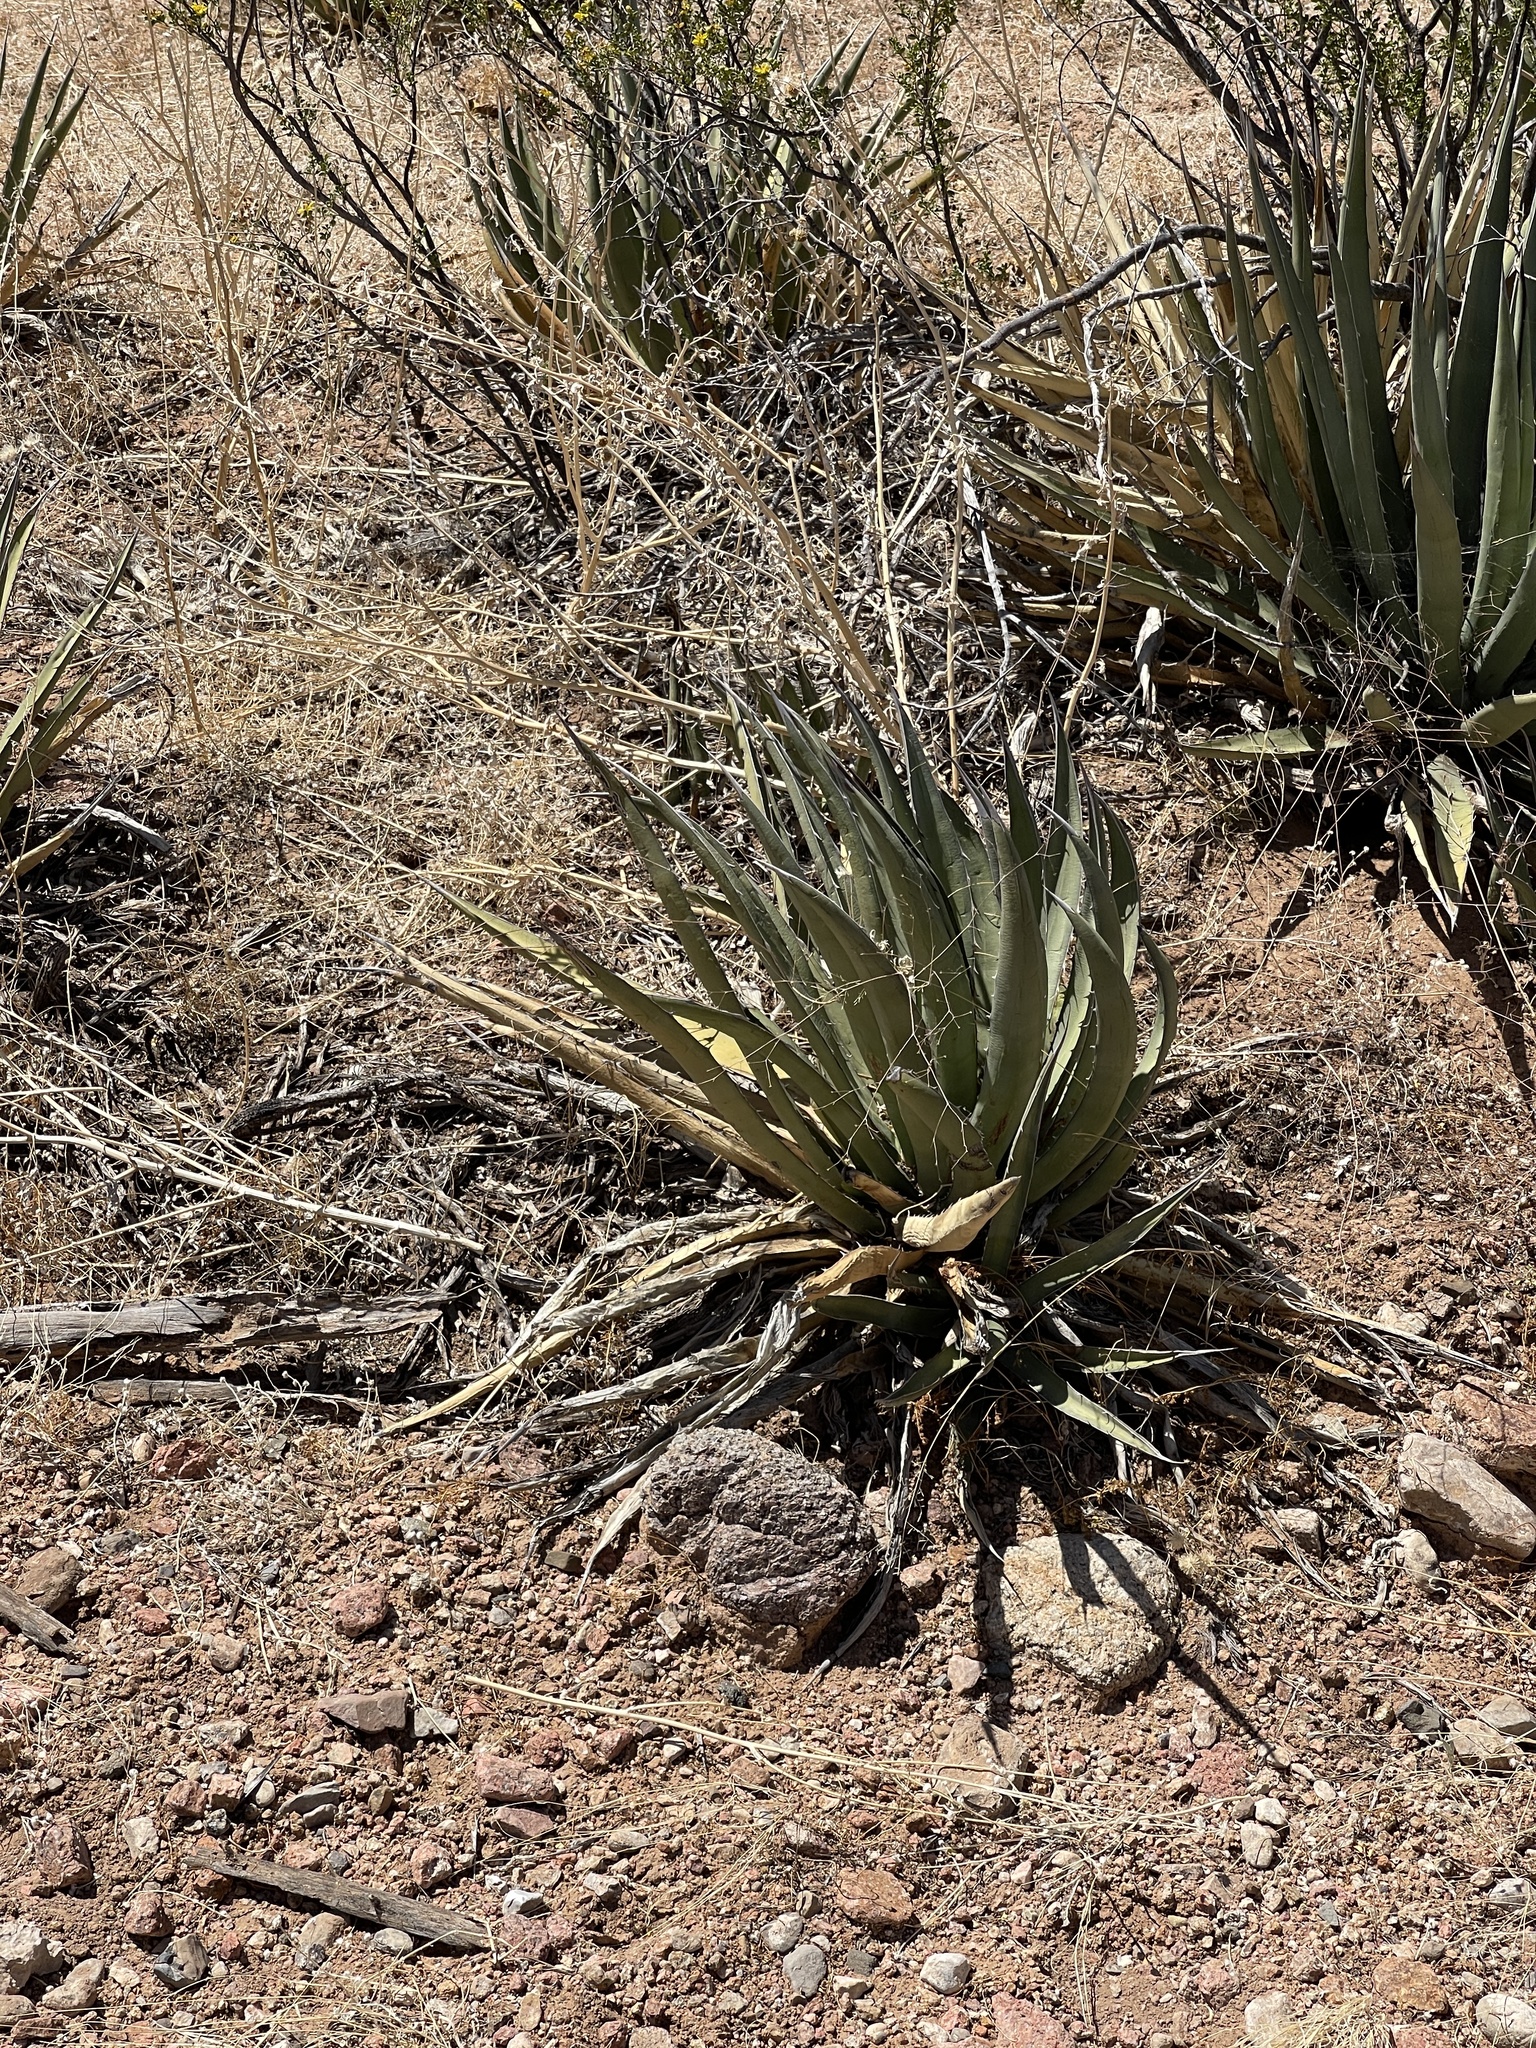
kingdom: Plantae
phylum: Tracheophyta
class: Liliopsida
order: Asparagales
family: Asparagaceae
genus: Agave
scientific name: Agave lechuguilla
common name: Lecheguilla agave
